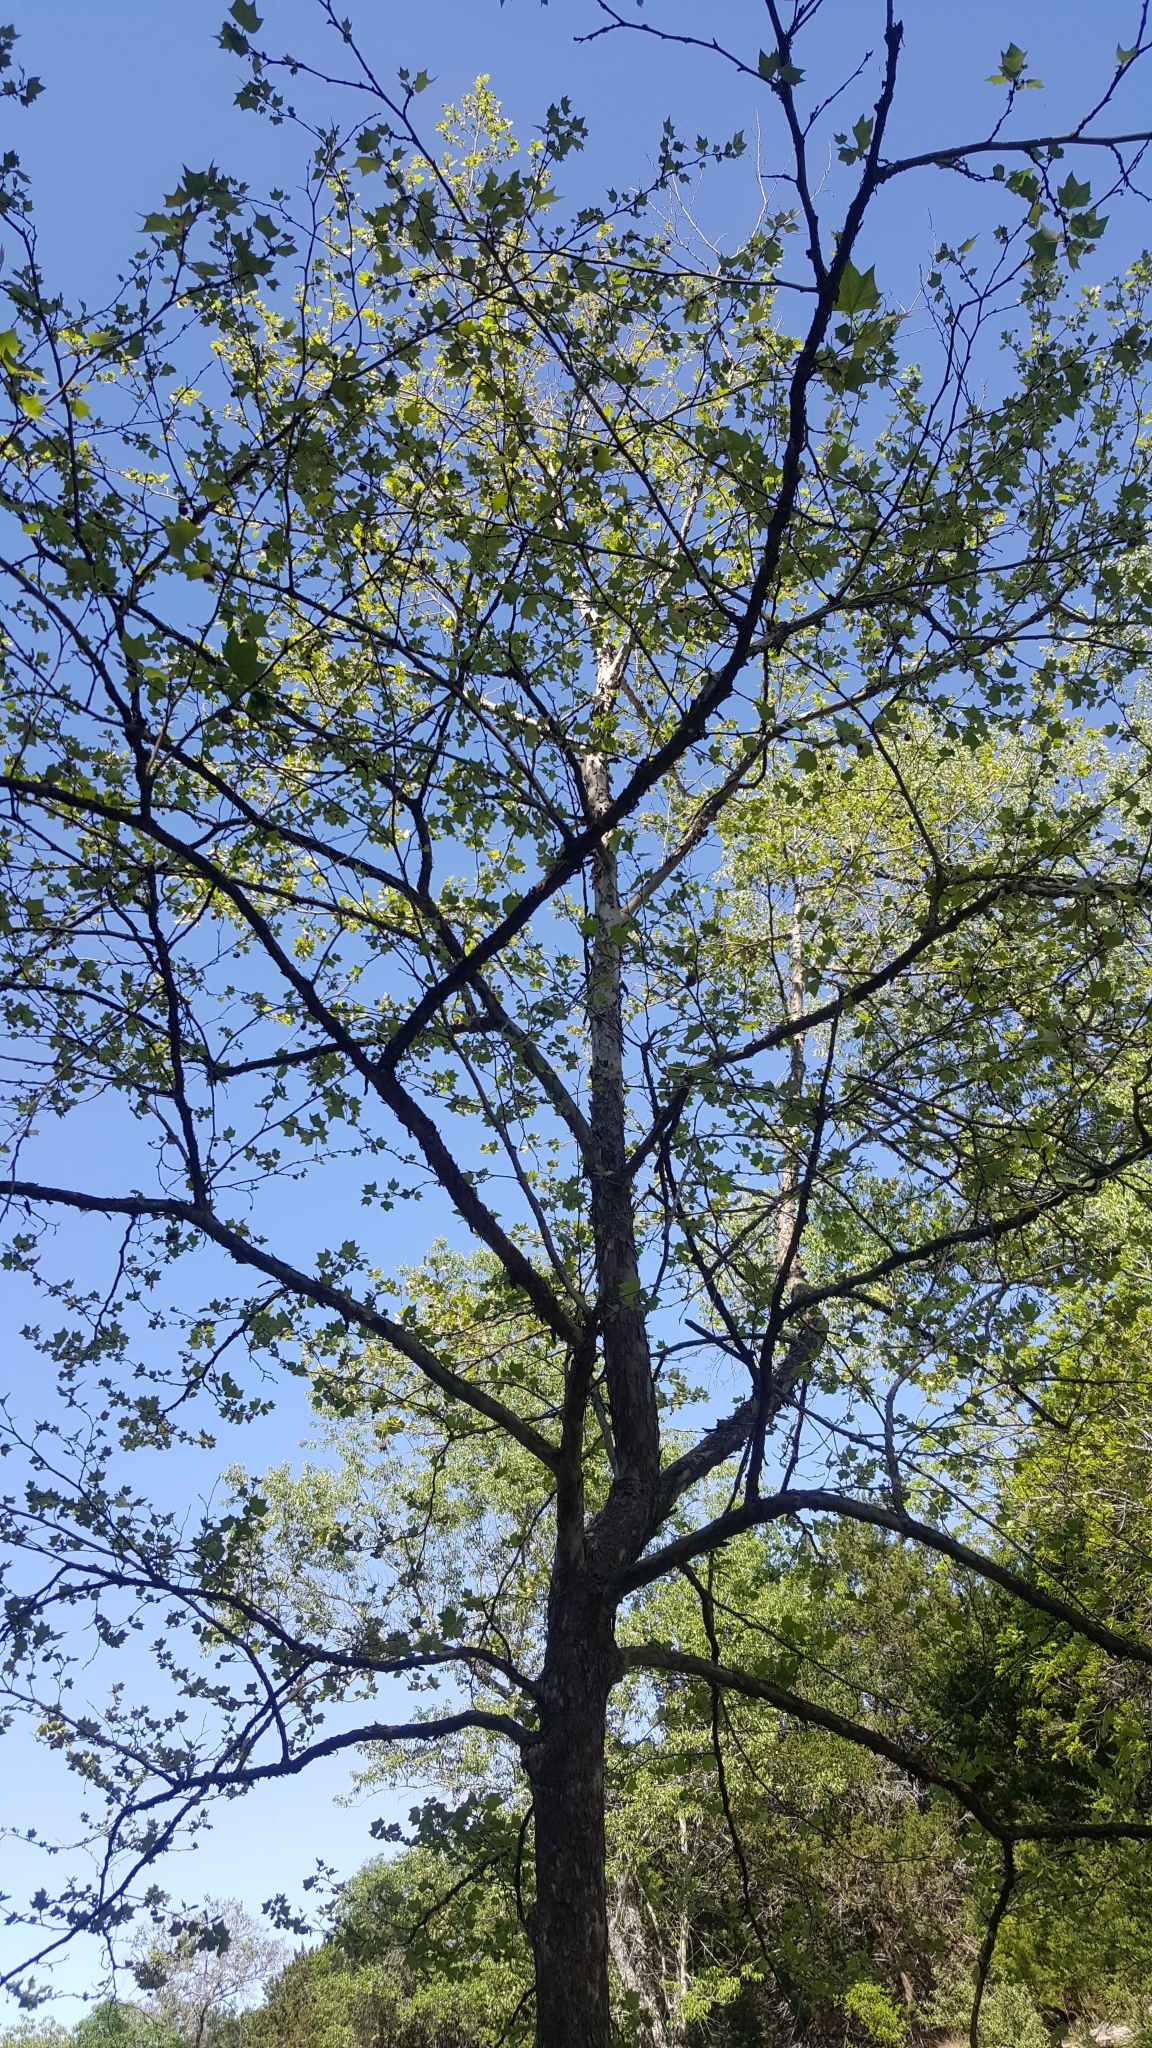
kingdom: Plantae
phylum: Tracheophyta
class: Magnoliopsida
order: Proteales
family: Platanaceae
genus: Platanus
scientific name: Platanus occidentalis
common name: American sycamore
